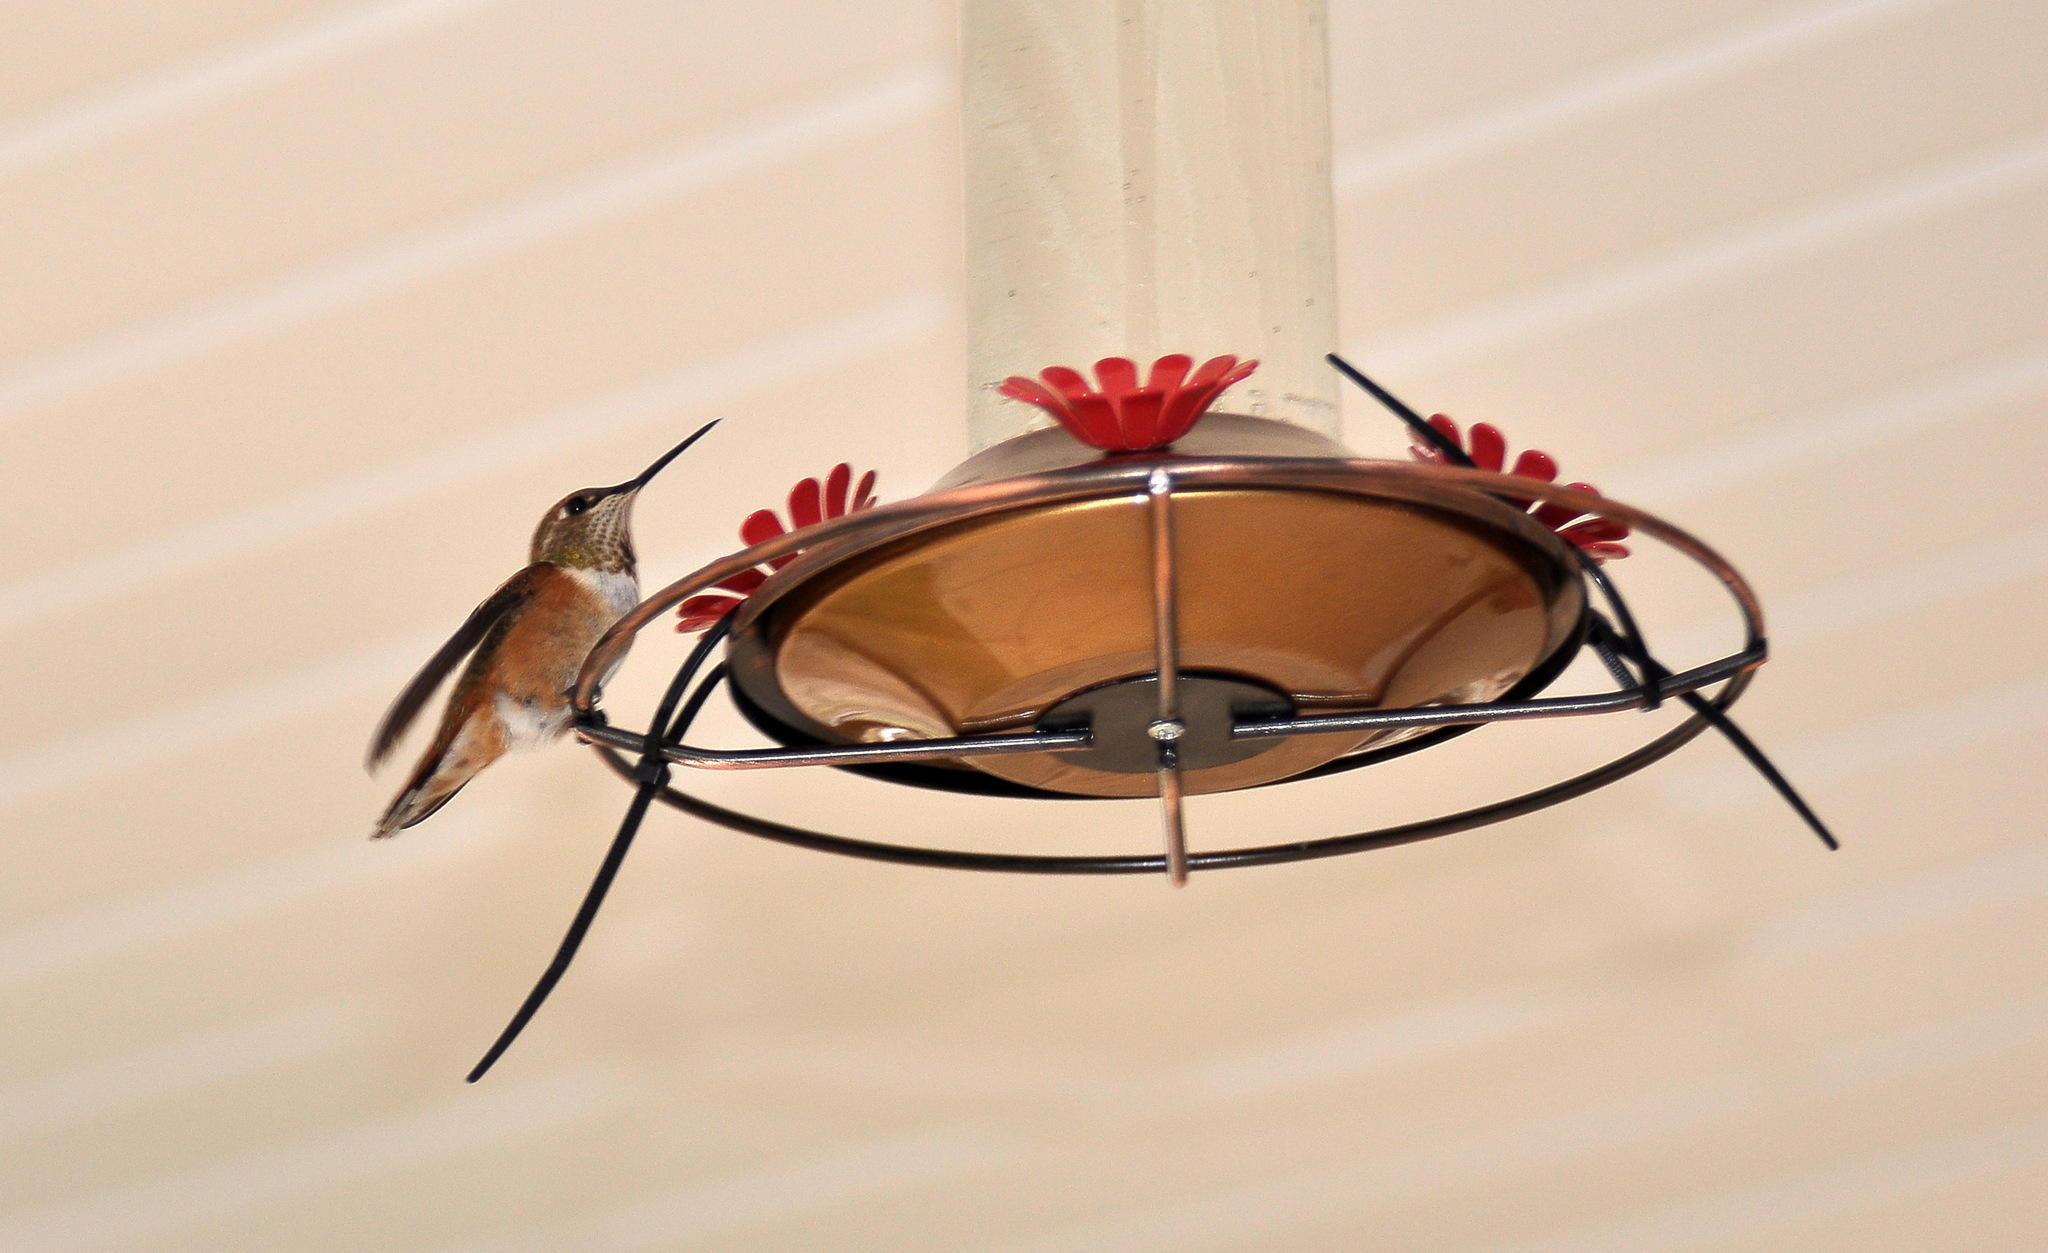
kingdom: Animalia
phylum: Chordata
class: Aves
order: Apodiformes
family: Trochilidae
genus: Selasphorus
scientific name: Selasphorus rufus
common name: Rufous hummingbird
